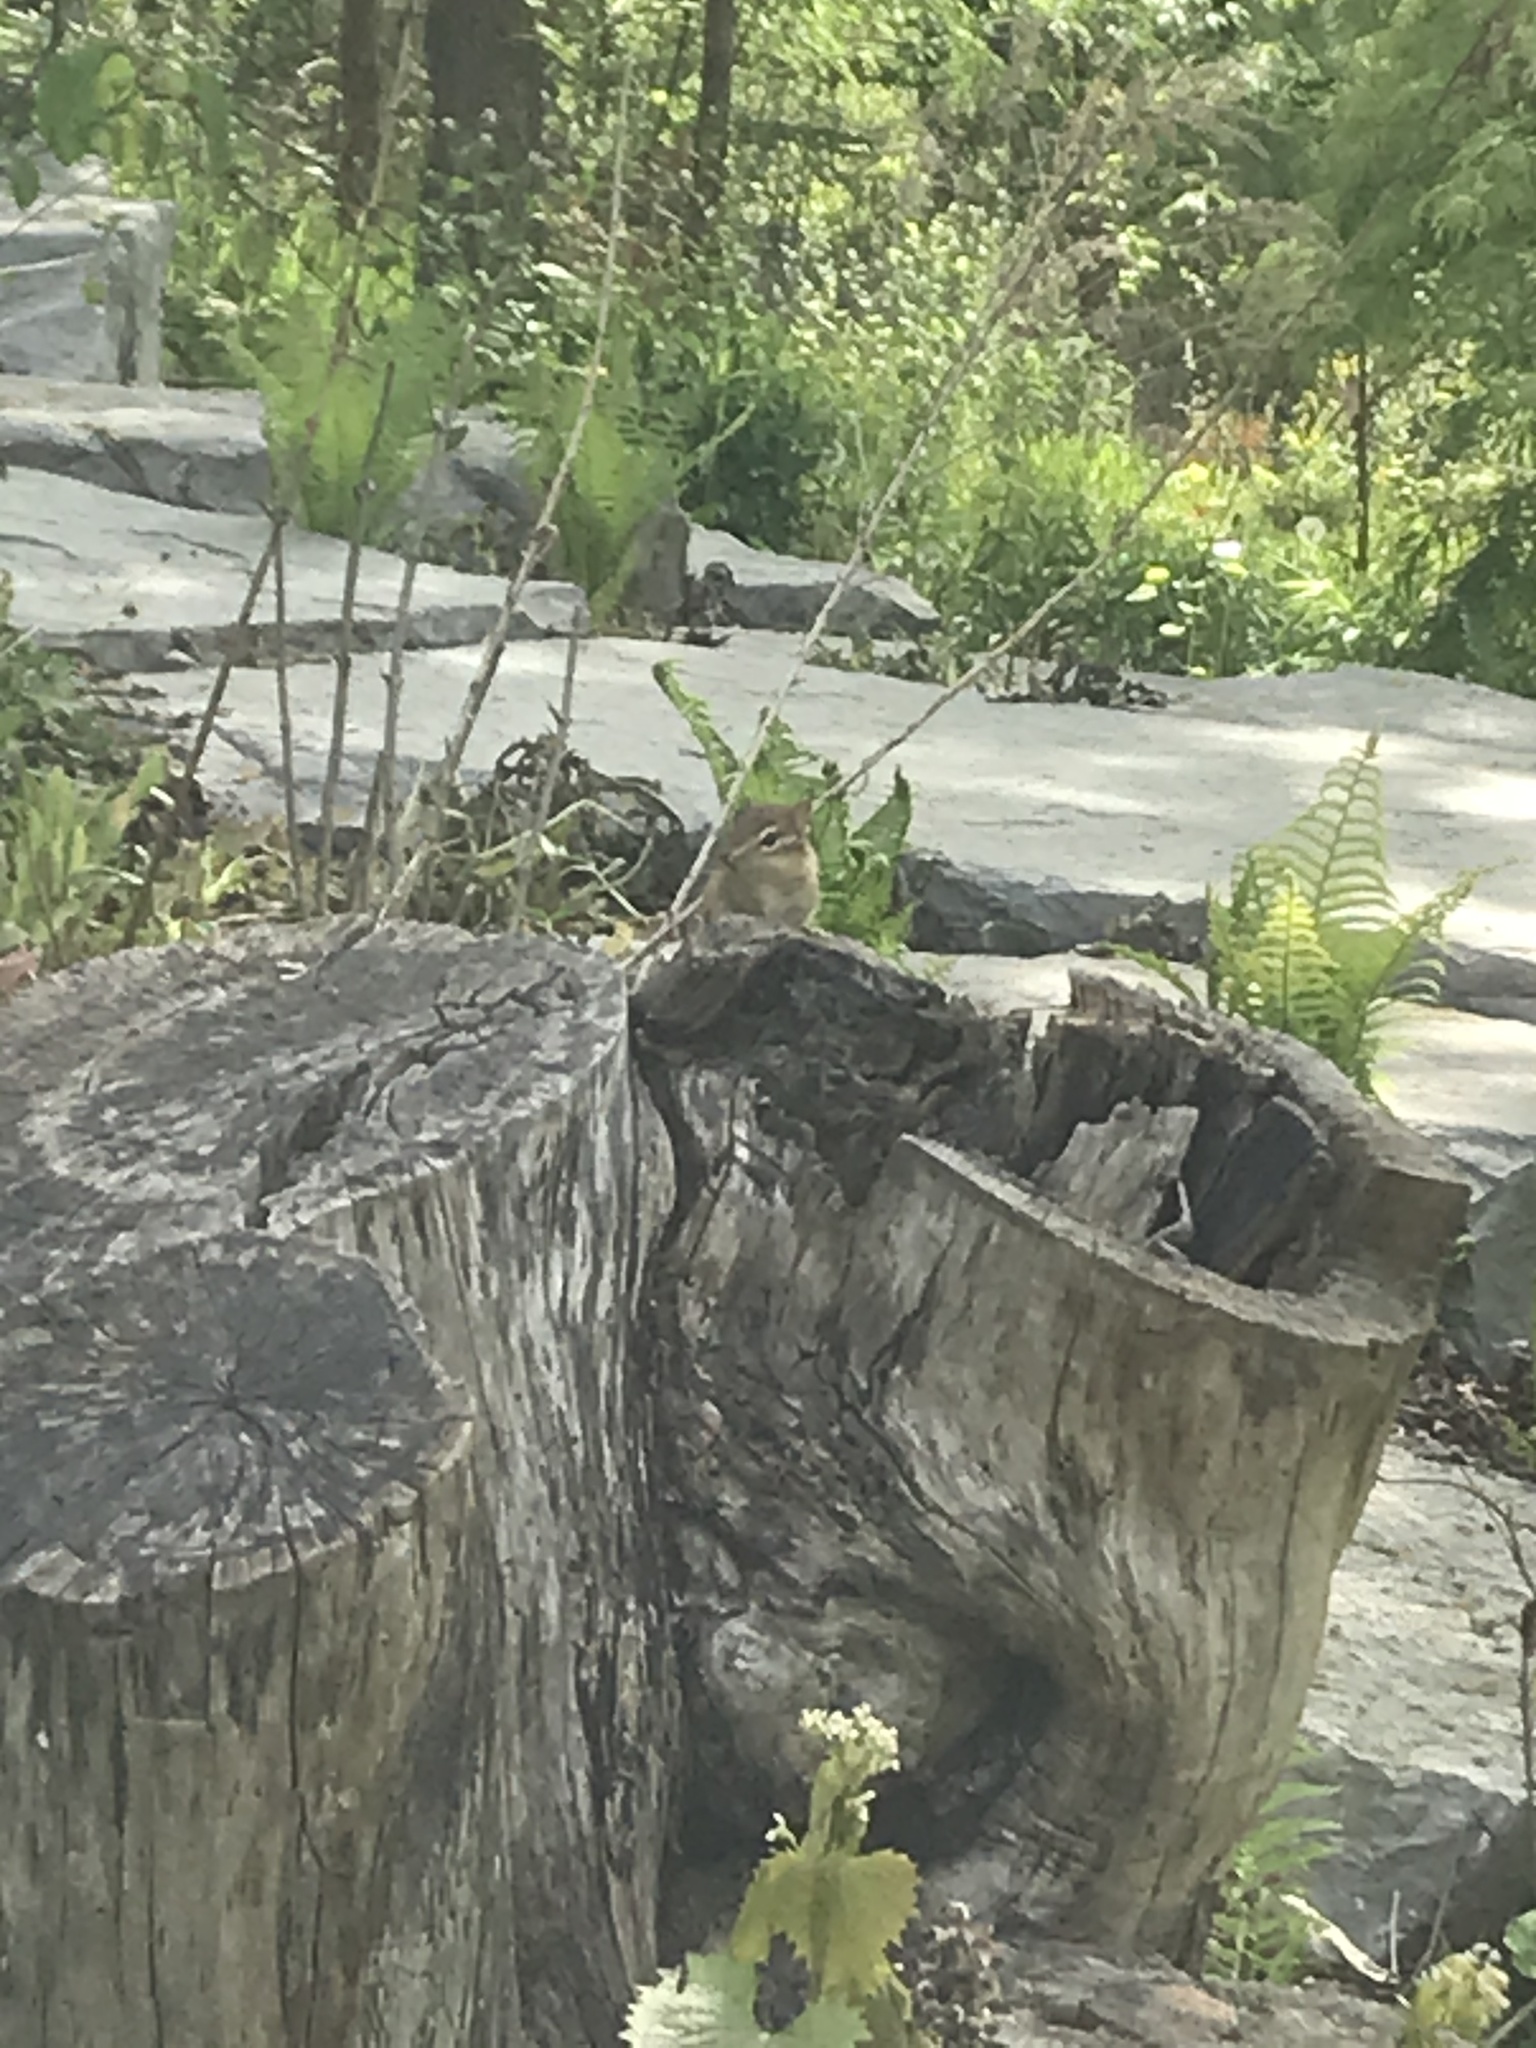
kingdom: Animalia
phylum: Chordata
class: Mammalia
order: Rodentia
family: Sciuridae
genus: Tamias
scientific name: Tamias striatus
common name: Eastern chipmunk
